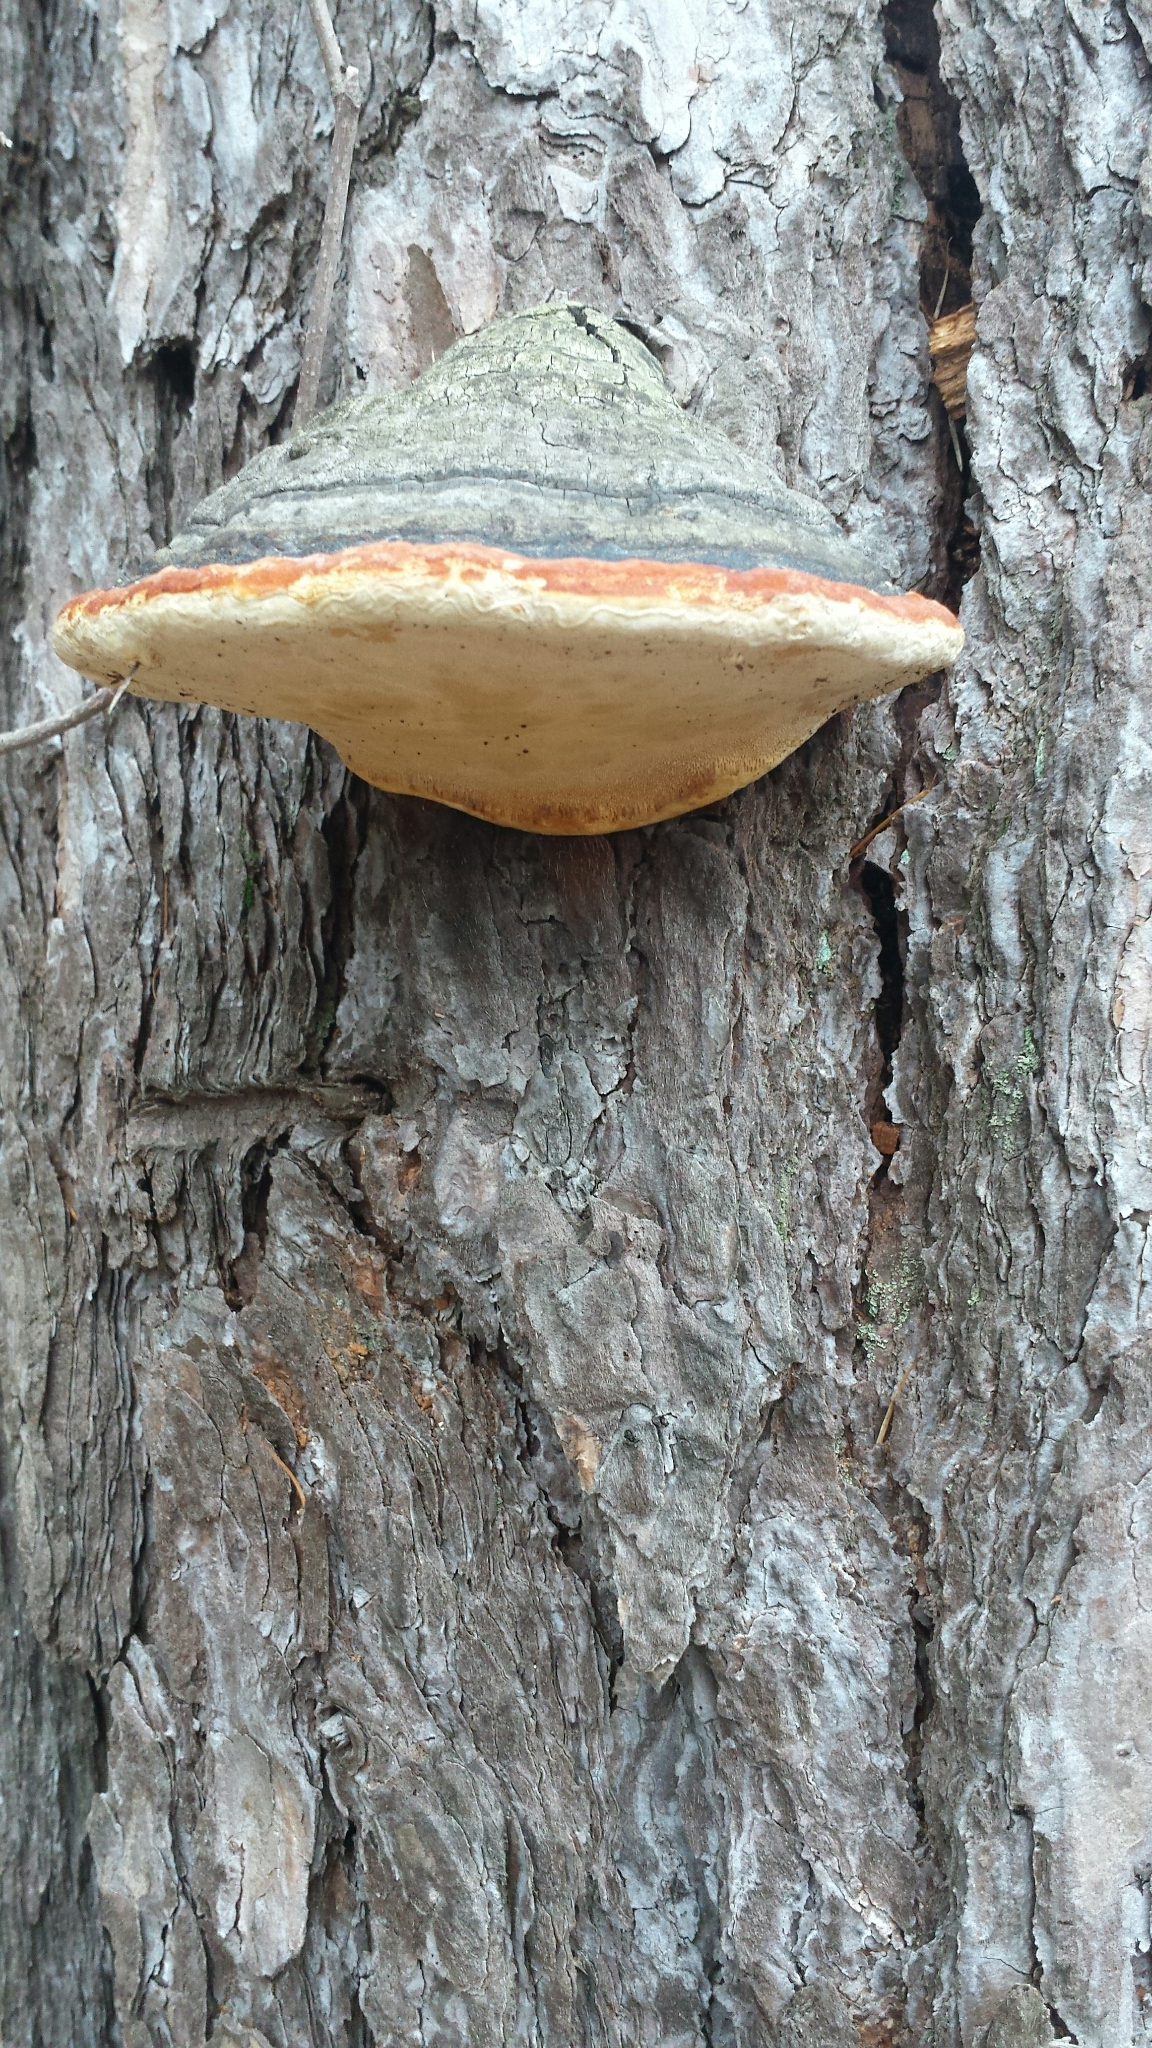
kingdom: Fungi
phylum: Basidiomycota
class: Agaricomycetes
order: Polyporales
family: Fomitopsidaceae
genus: Fomitopsis
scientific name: Fomitopsis mounceae
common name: Northern red belt
